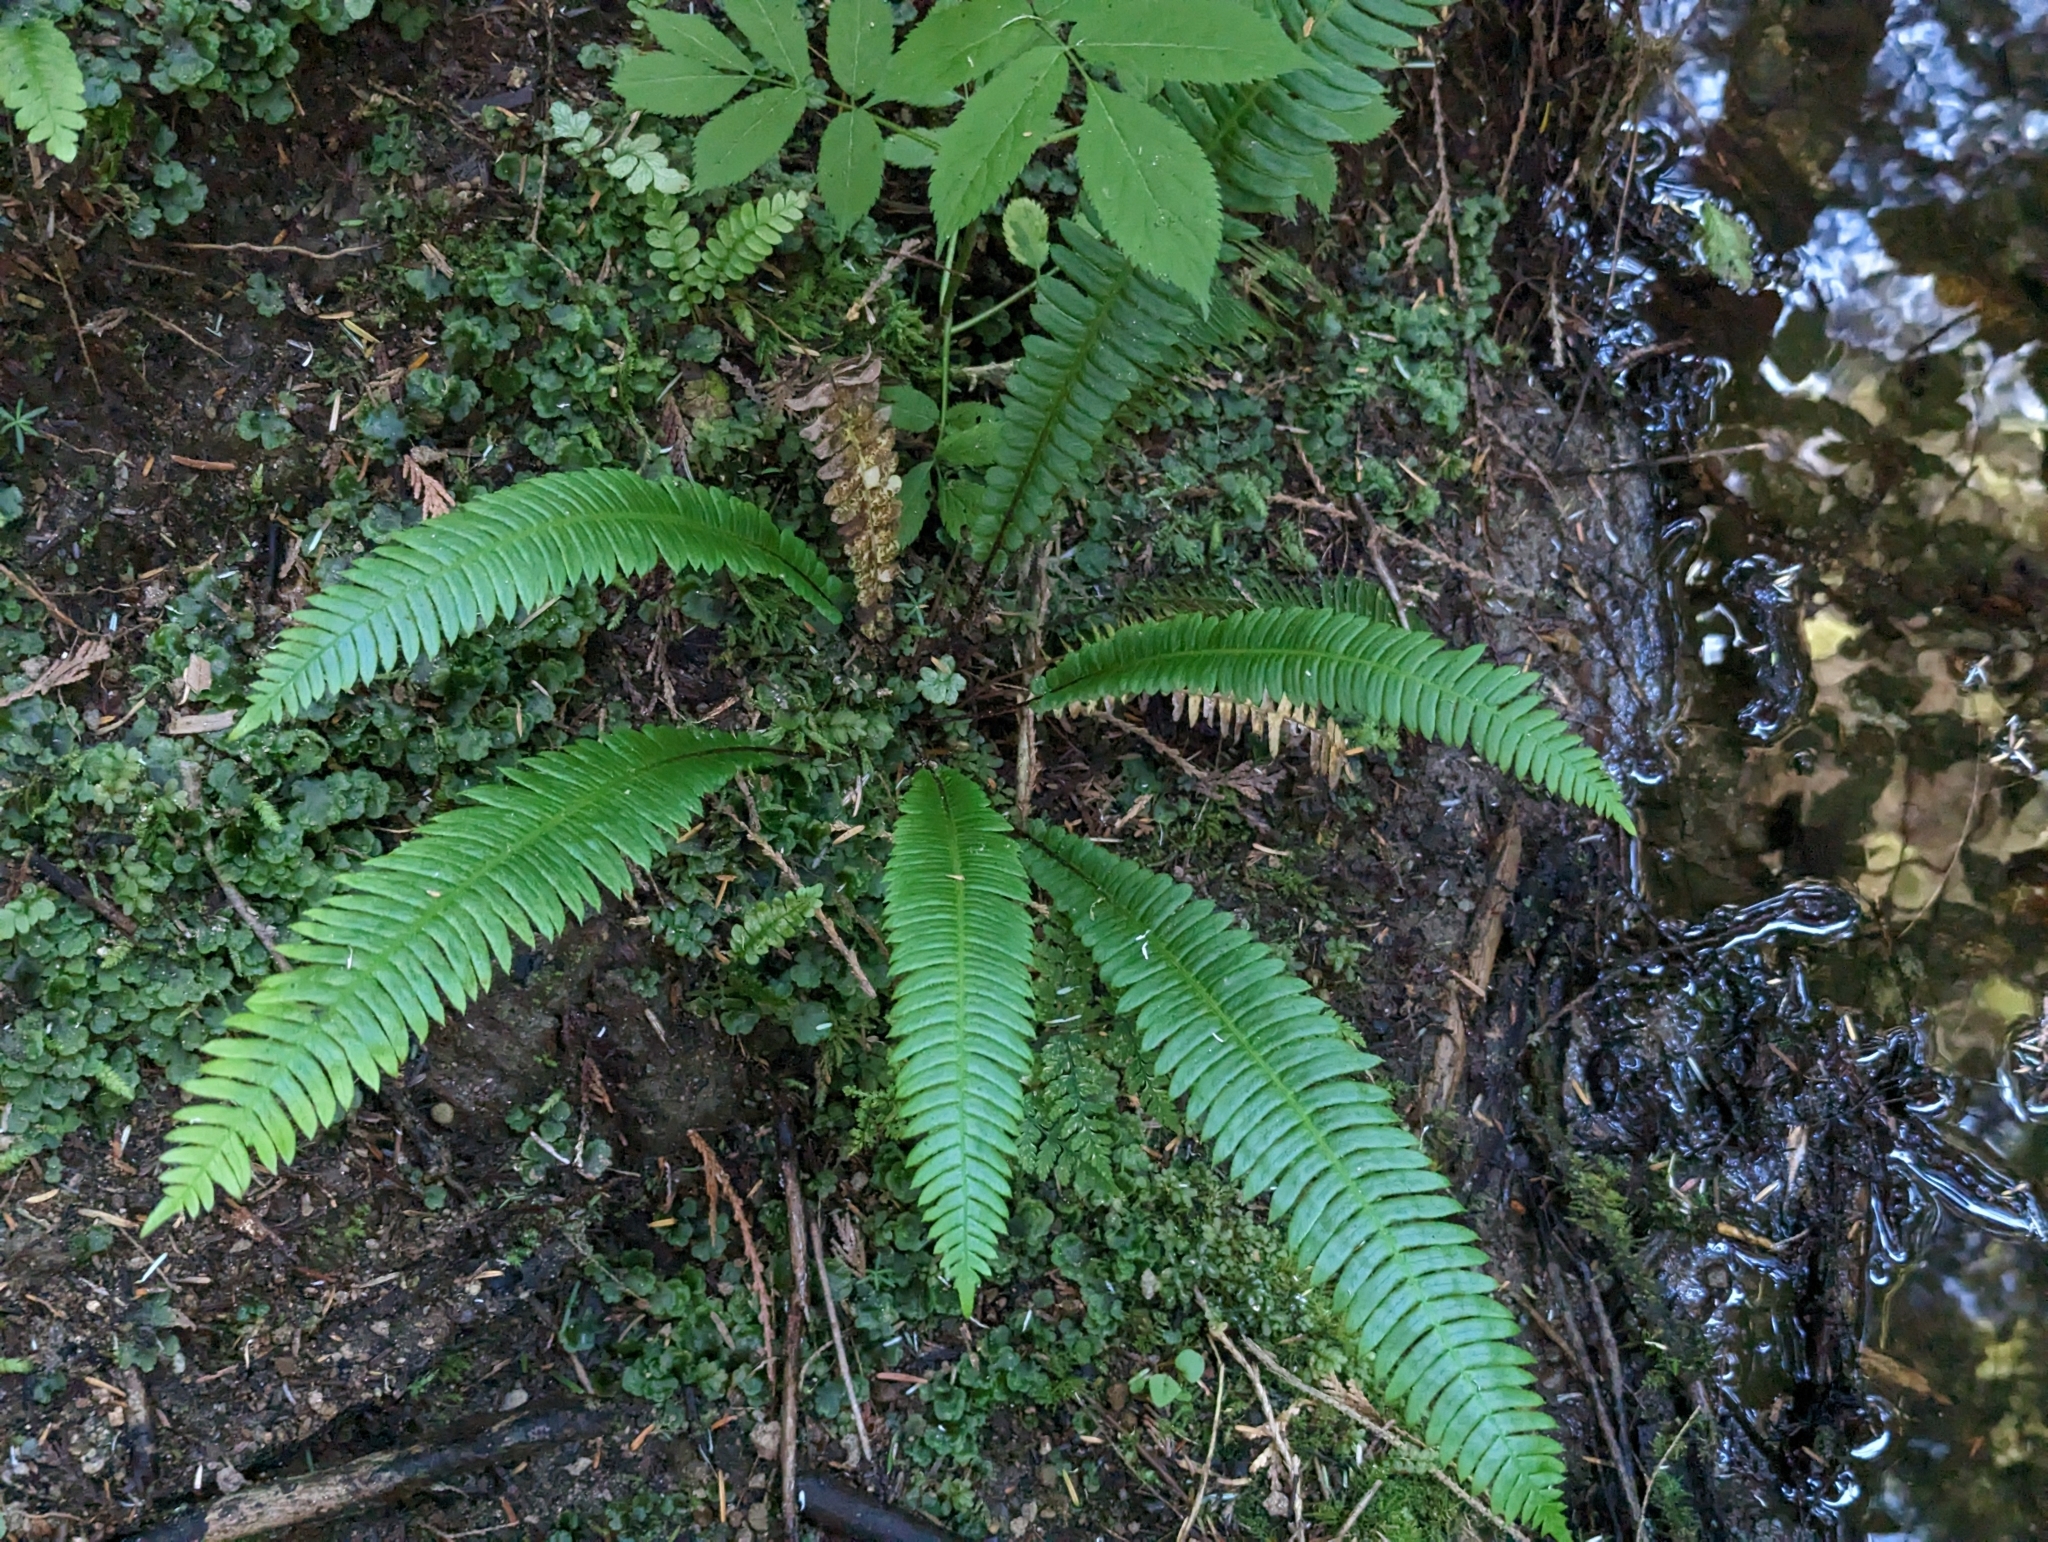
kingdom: Plantae
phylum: Tracheophyta
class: Polypodiopsida
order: Polypodiales
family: Blechnaceae
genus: Struthiopteris
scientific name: Struthiopteris spicant
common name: Deer fern
